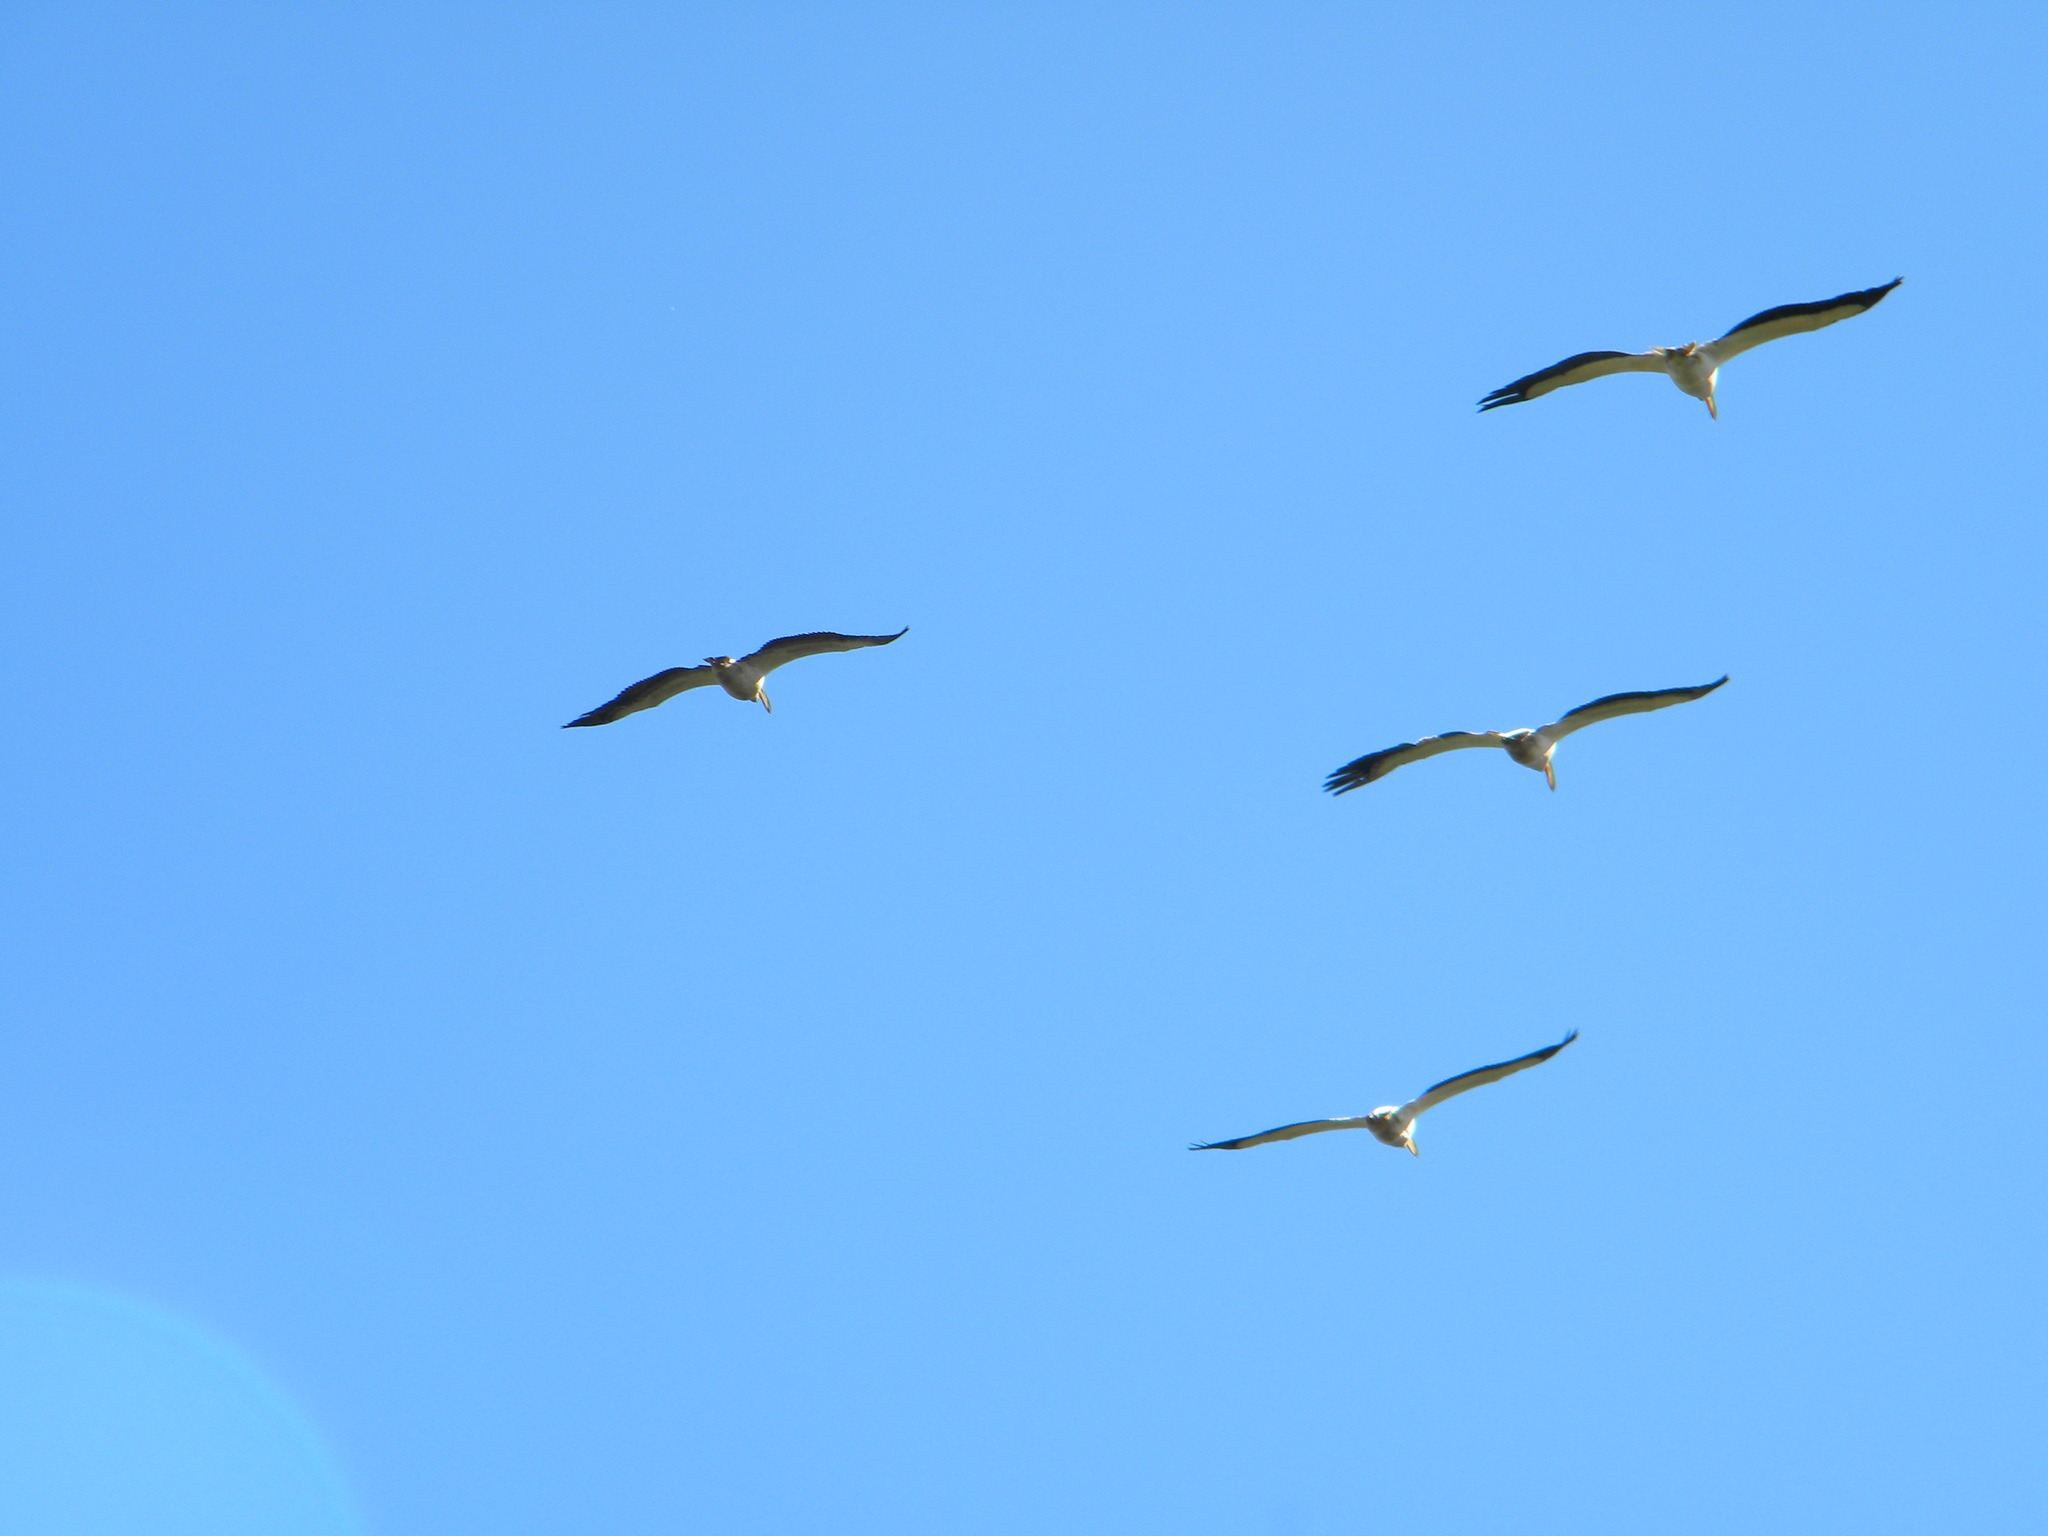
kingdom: Animalia
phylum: Chordata
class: Aves
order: Pelecaniformes
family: Pelecanidae
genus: Pelecanus
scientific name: Pelecanus onocrotalus
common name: Great white pelican
